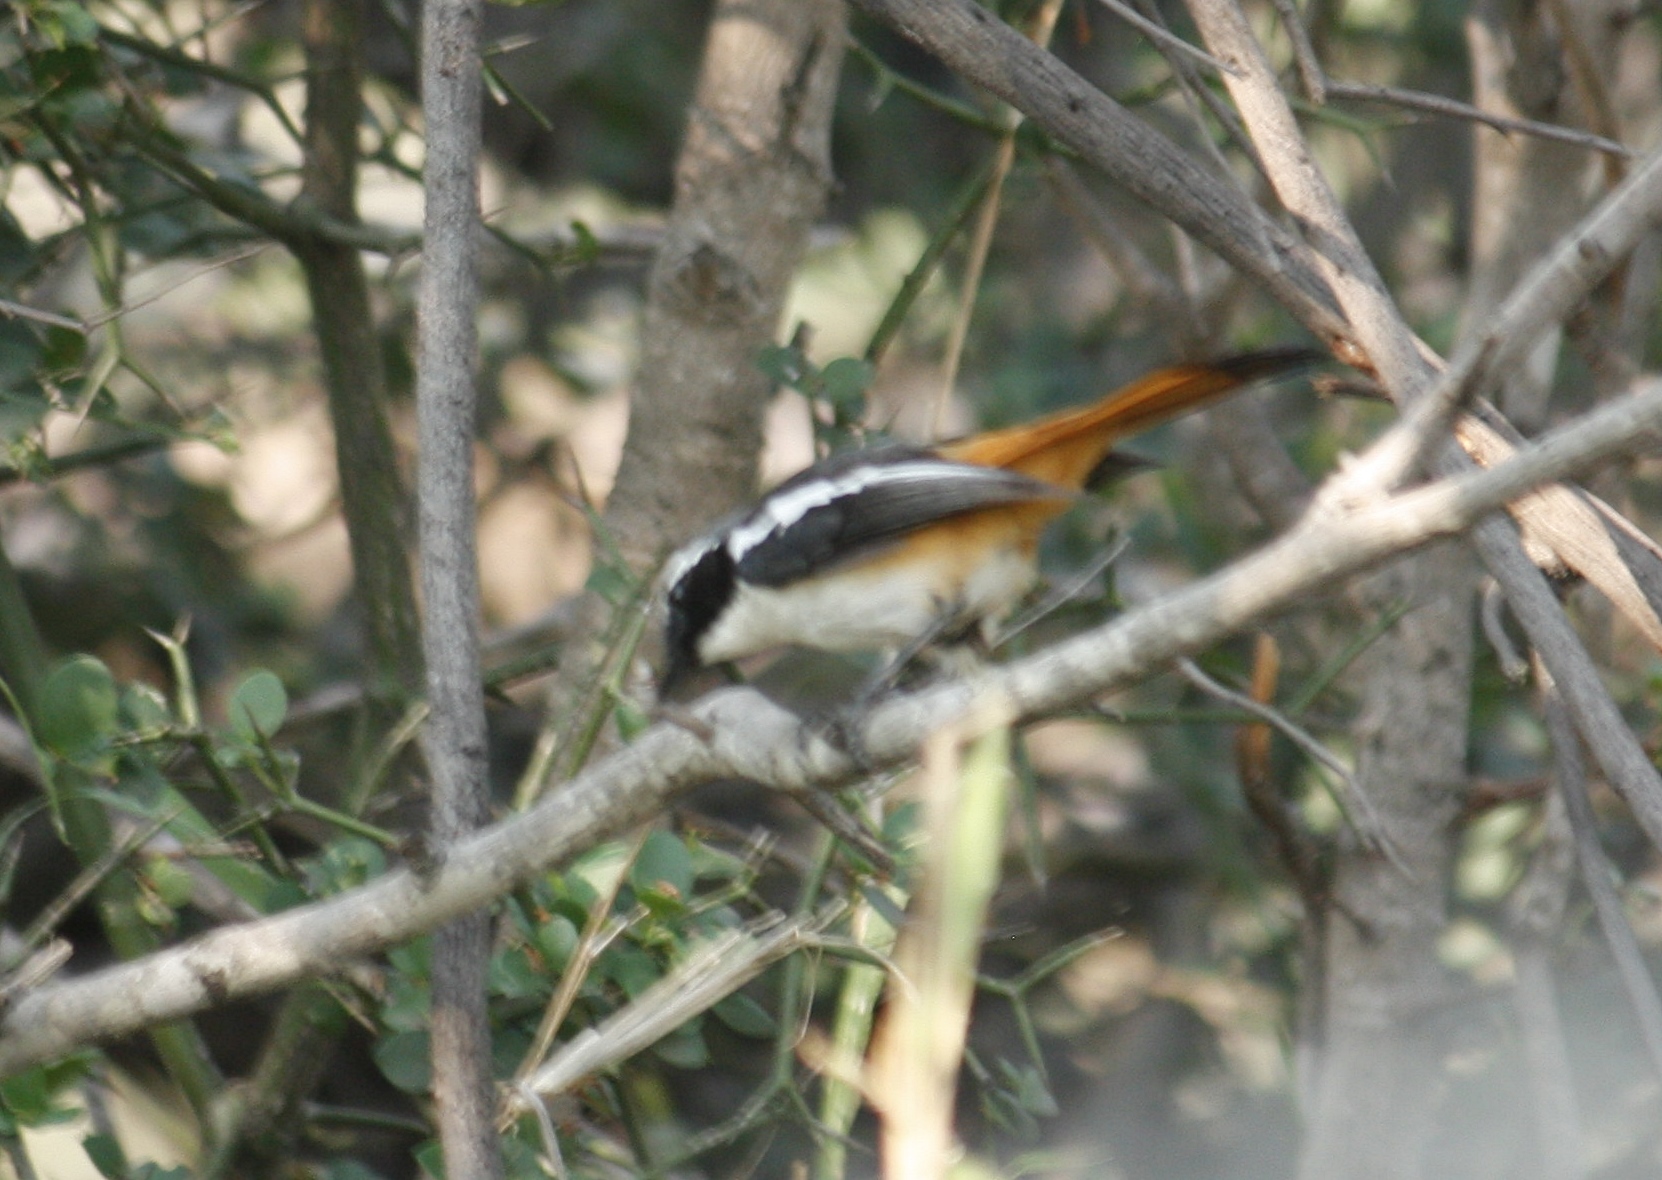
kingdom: Animalia
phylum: Chordata
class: Aves
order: Passeriformes
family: Muscicapidae
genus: Cossypha
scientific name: Cossypha humeralis
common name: White-throated robin-chat
